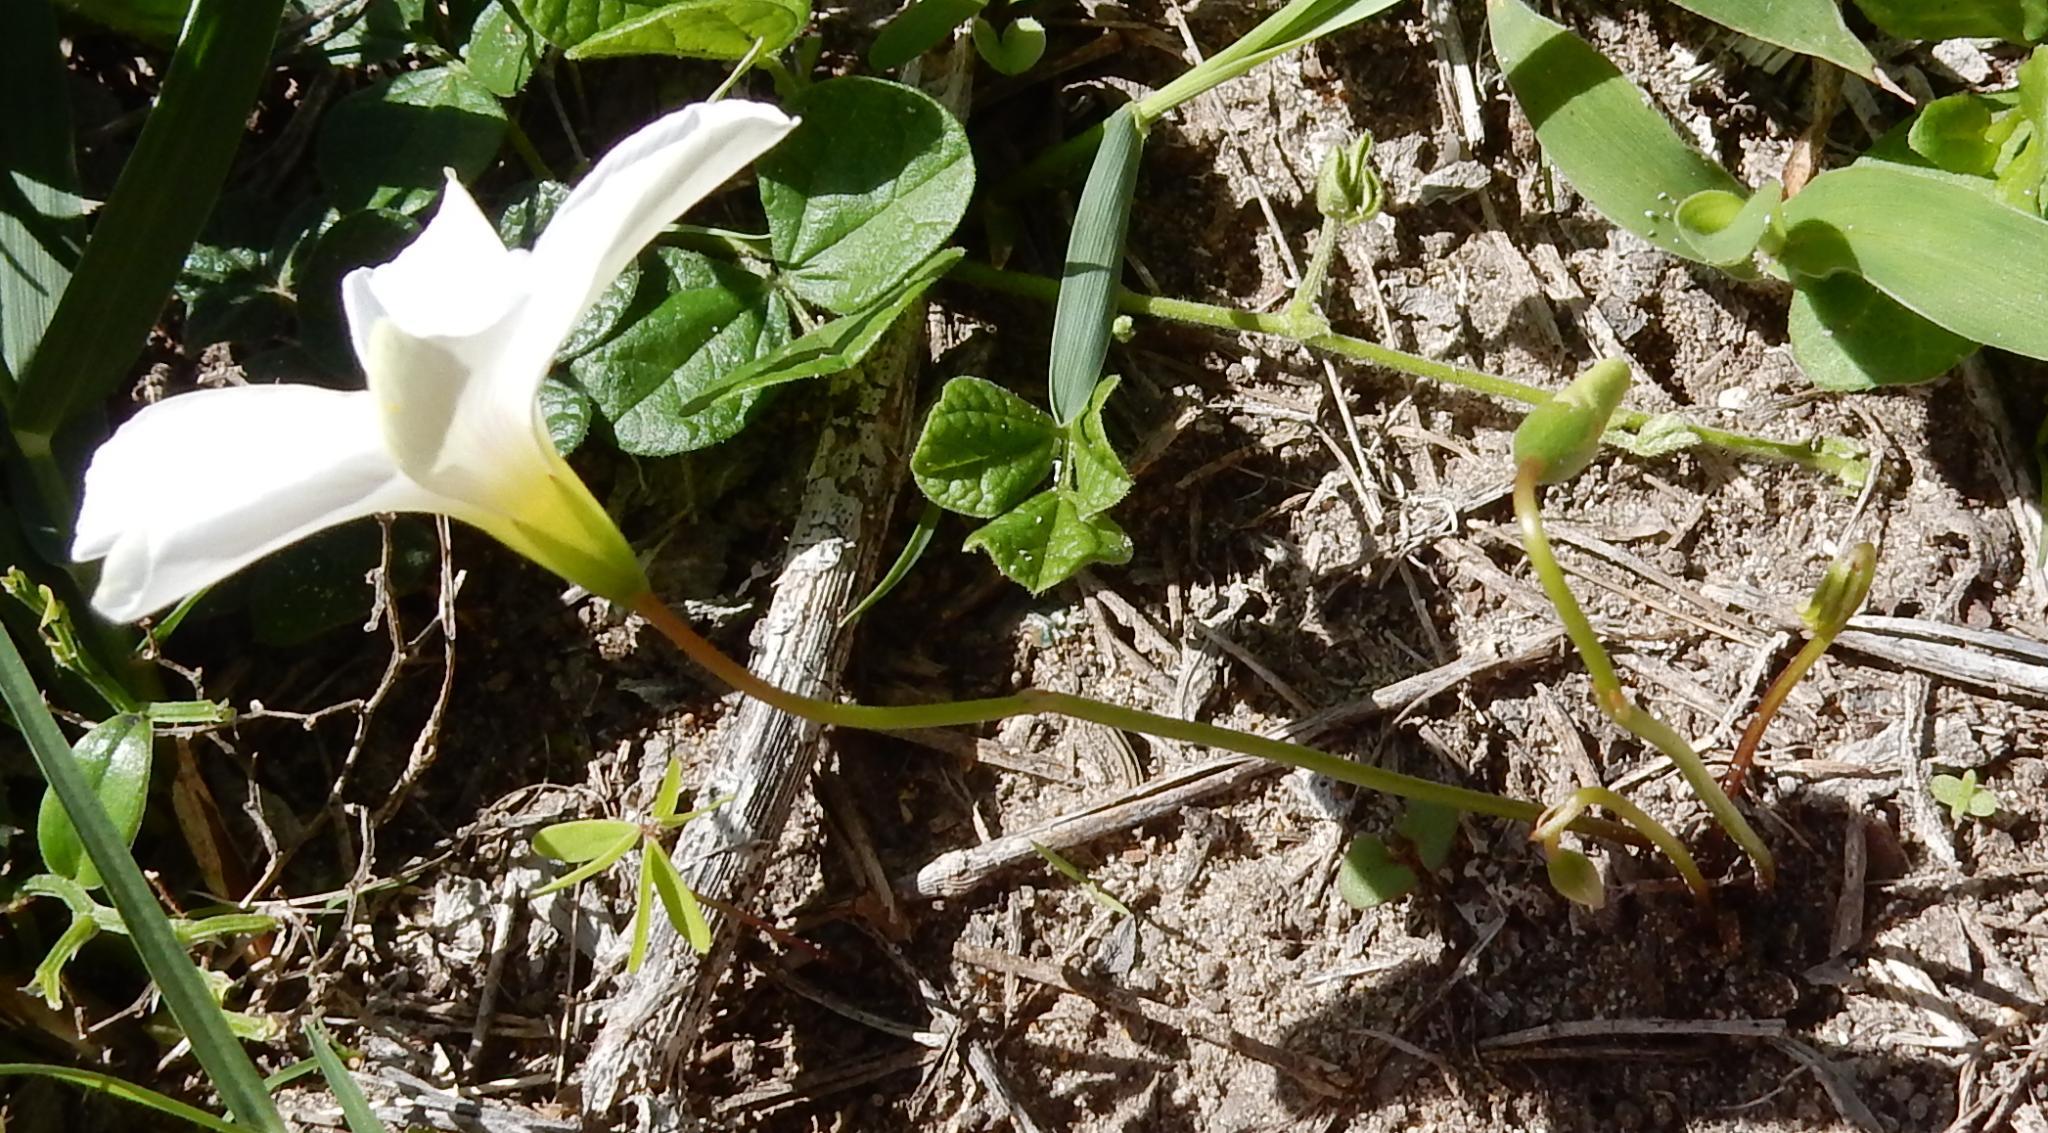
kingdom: Plantae
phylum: Tracheophyta
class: Magnoliopsida
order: Oxalidales
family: Oxalidaceae
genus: Oxalis
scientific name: Oxalis smithiana
